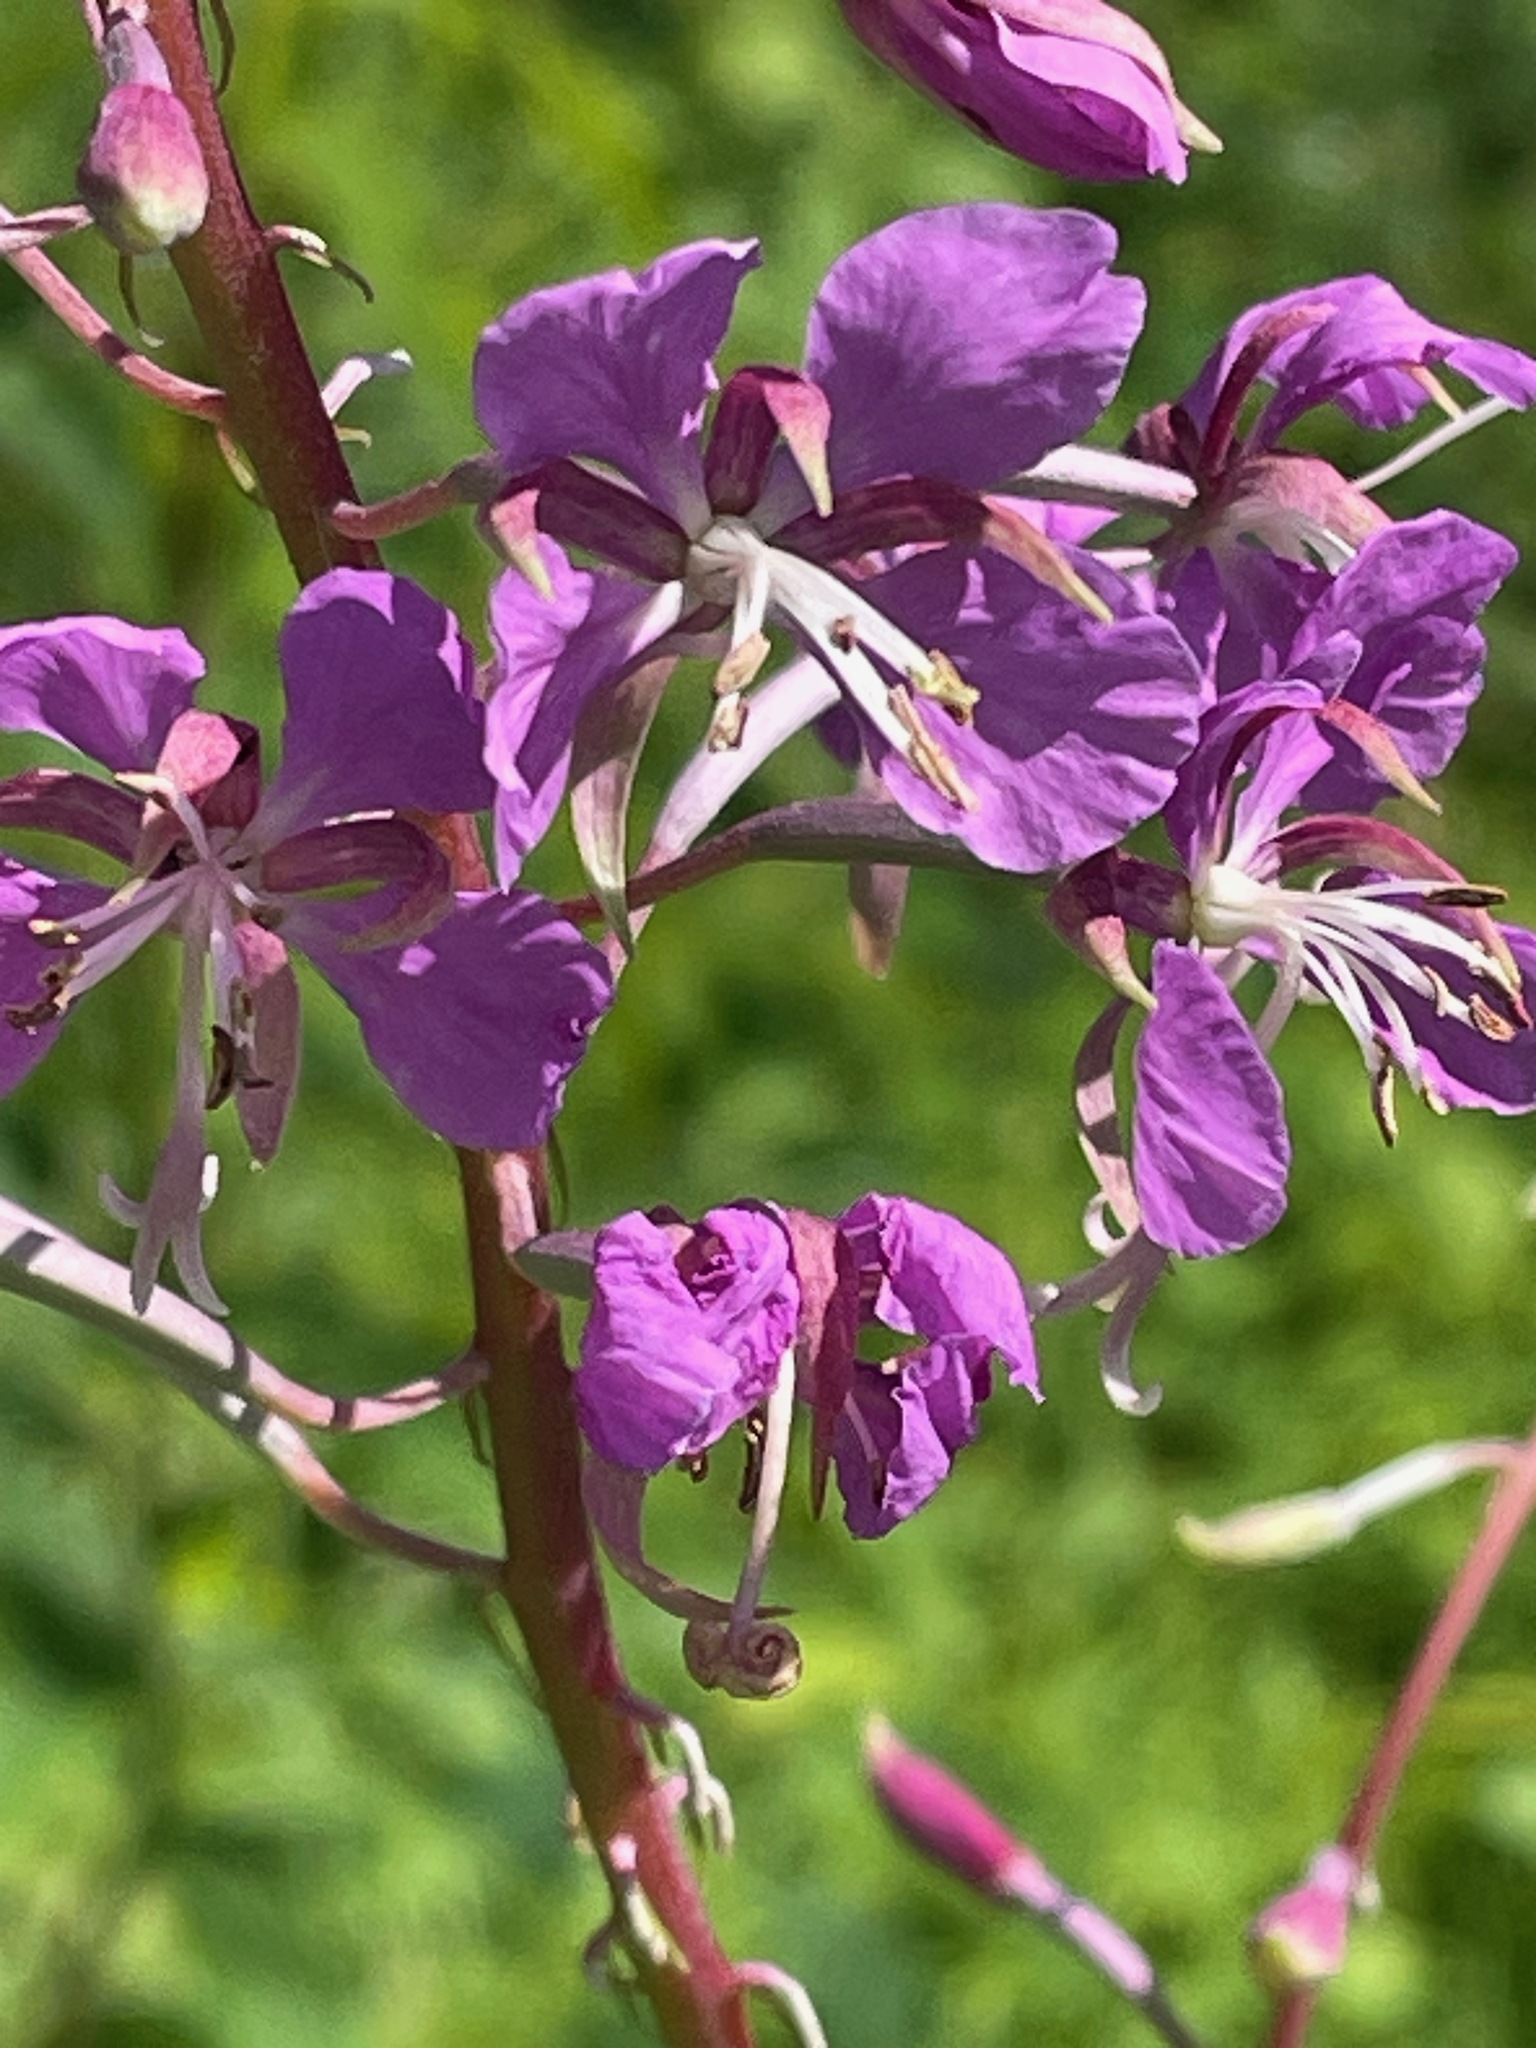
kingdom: Plantae
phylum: Tracheophyta
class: Magnoliopsida
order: Myrtales
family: Onagraceae
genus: Chamaenerion
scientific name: Chamaenerion angustifolium
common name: Fireweed
